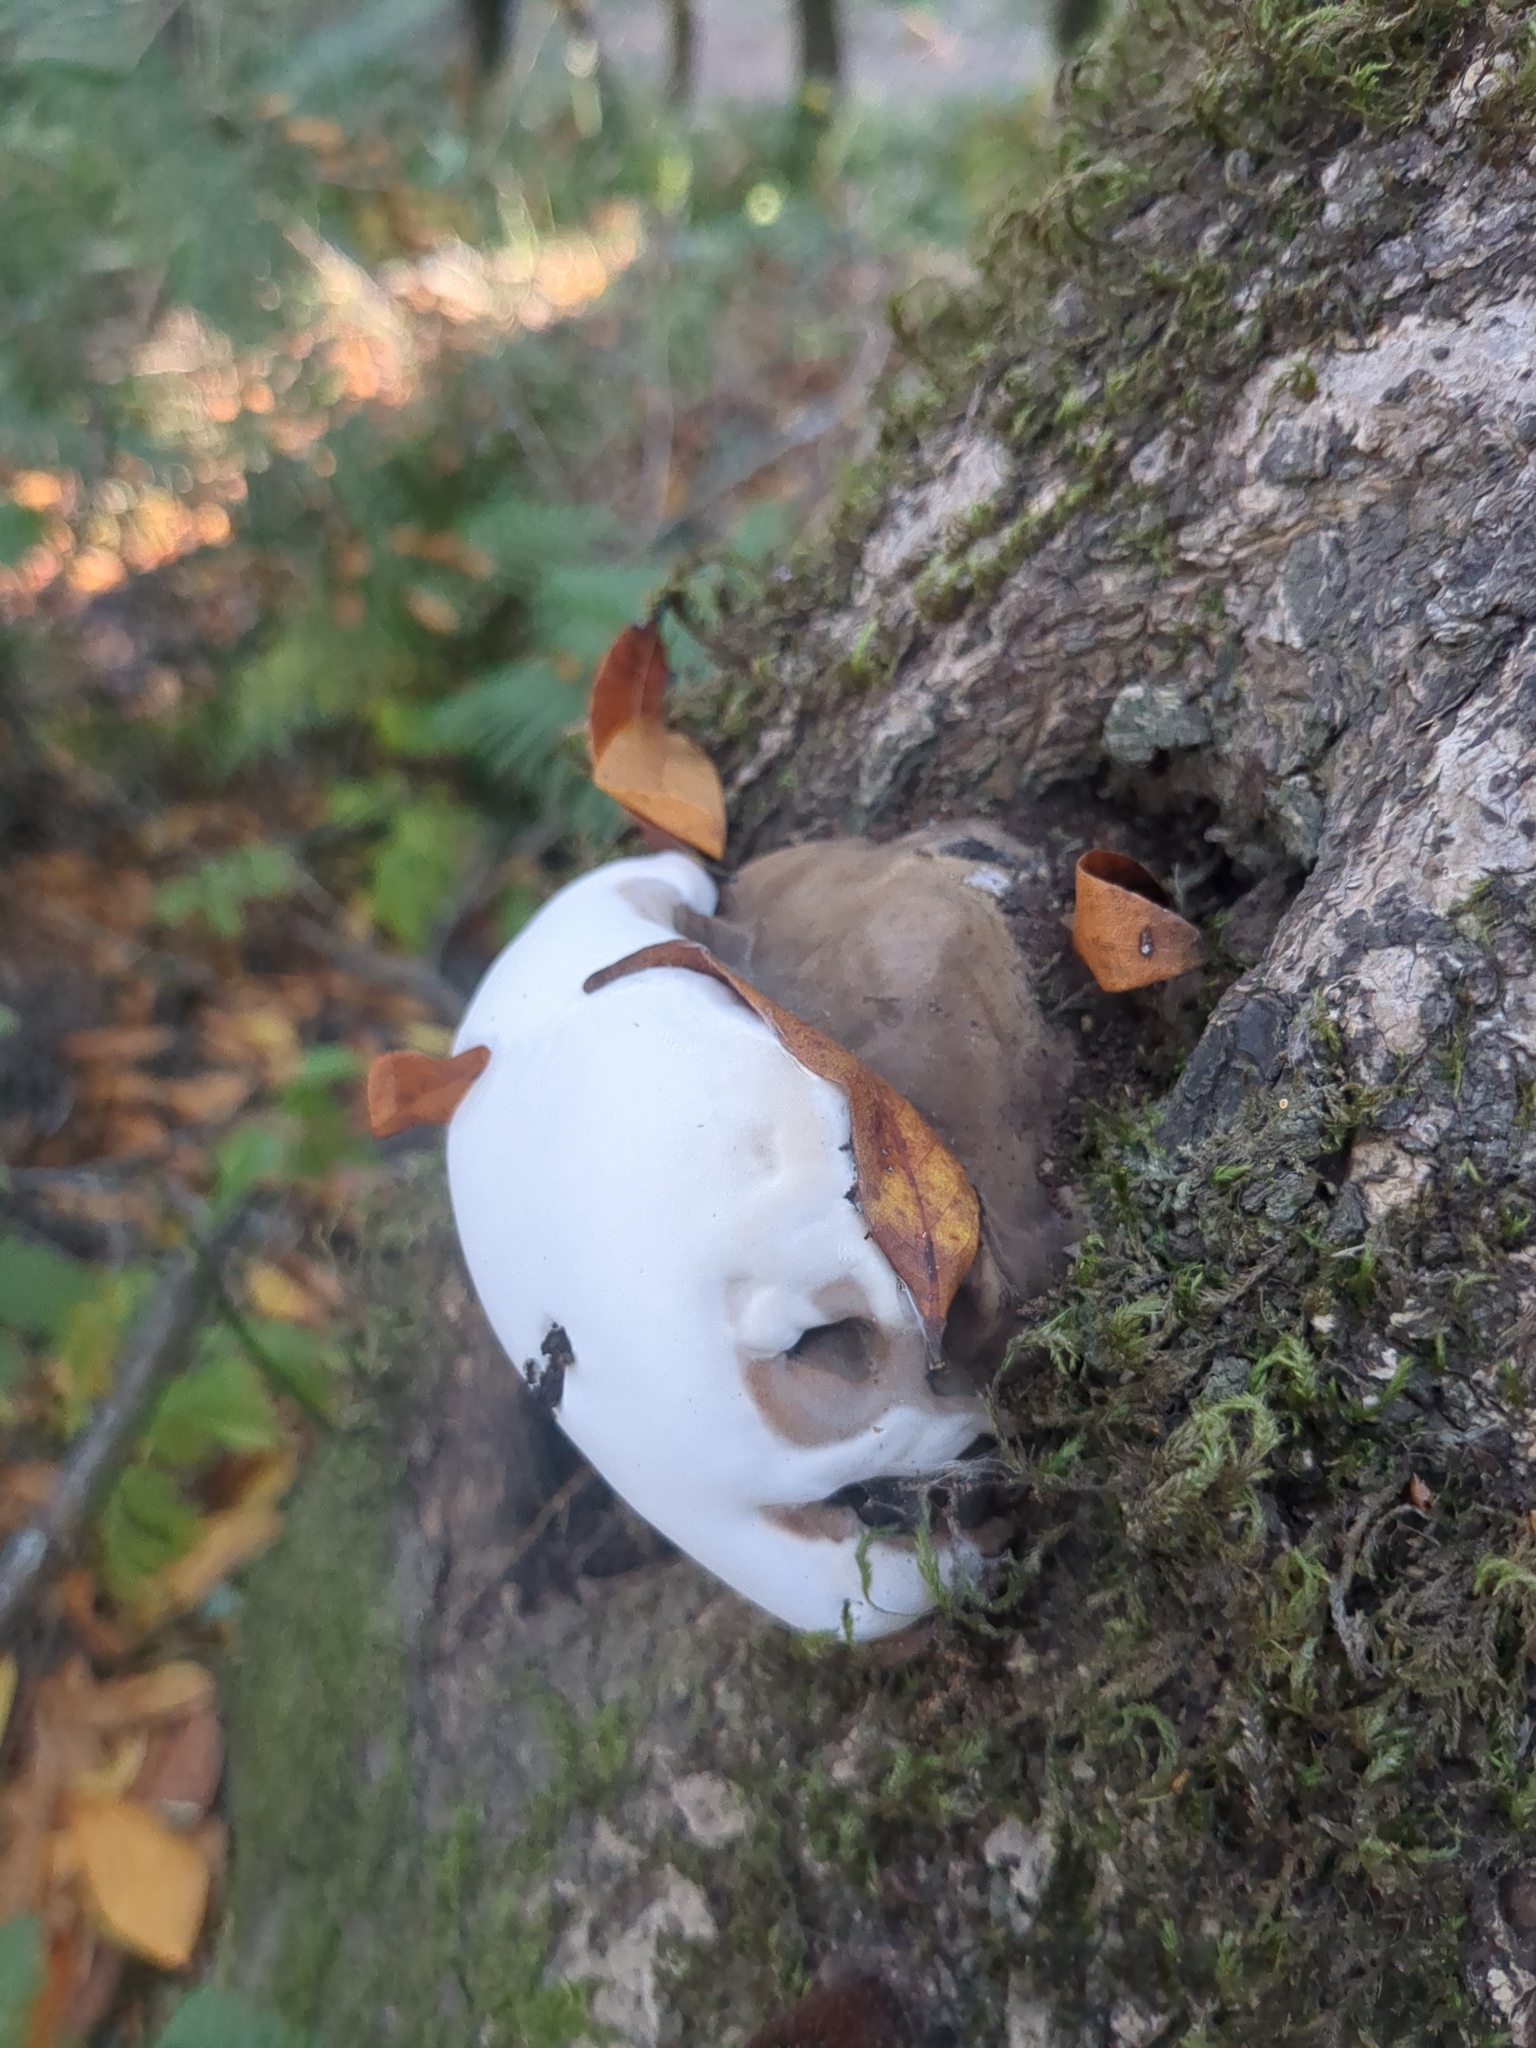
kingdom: Fungi
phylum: Basidiomycota
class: Agaricomycetes
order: Polyporales
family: Polyporaceae
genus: Ganoderma
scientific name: Ganoderma brownii
